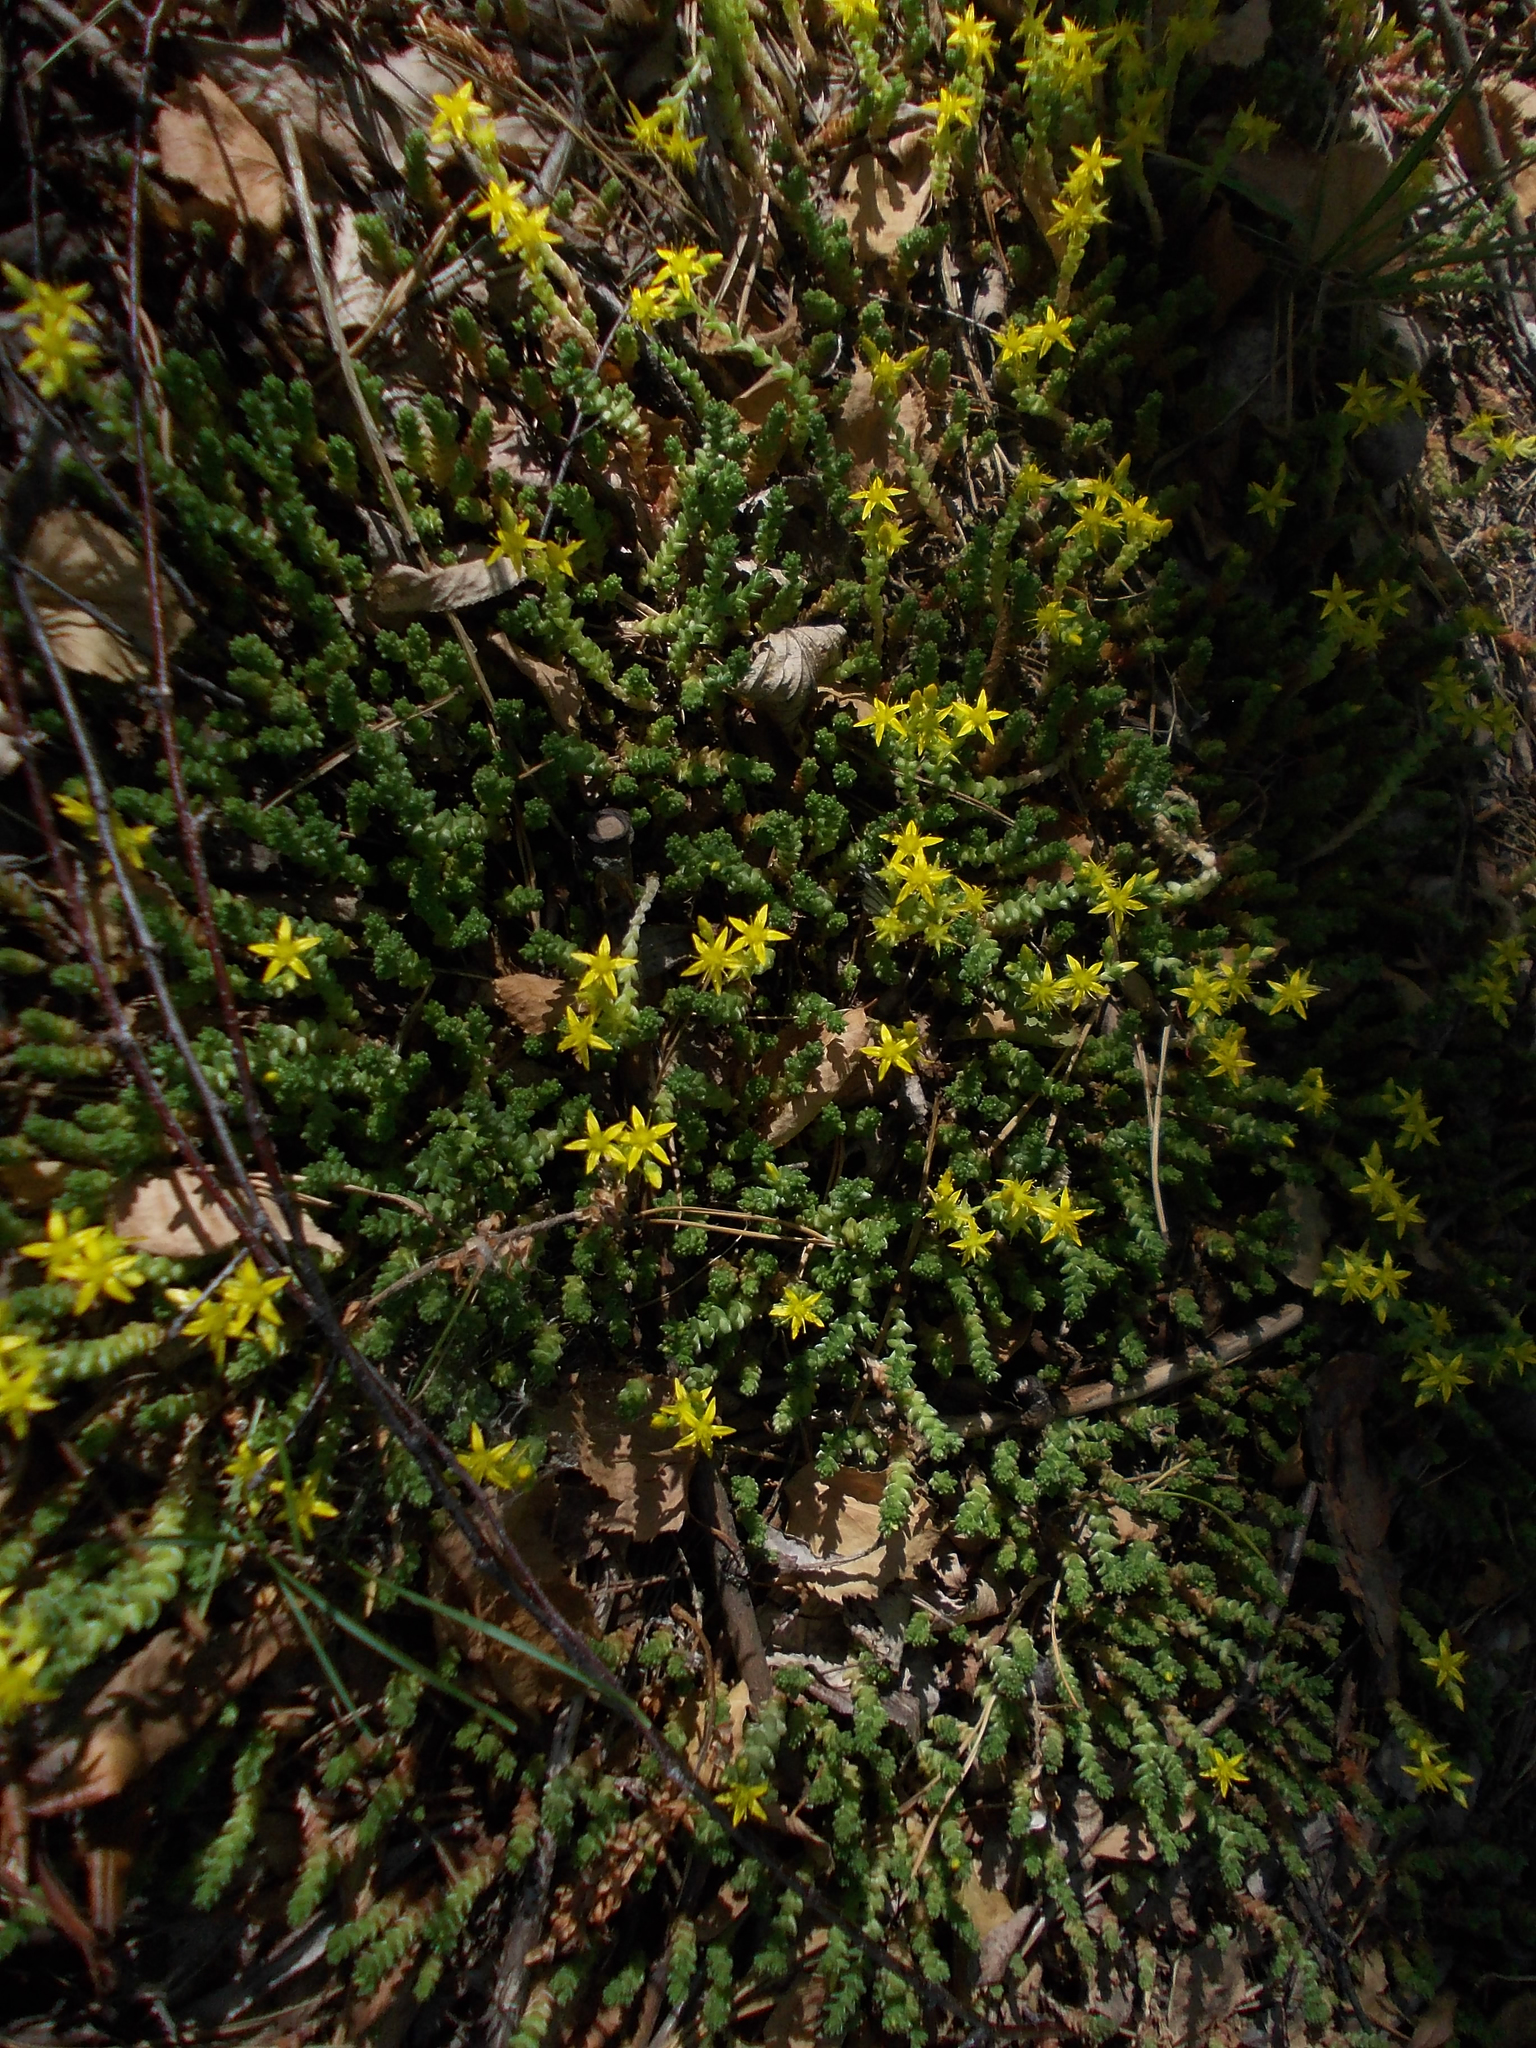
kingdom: Plantae
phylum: Tracheophyta
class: Magnoliopsida
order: Saxifragales
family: Crassulaceae
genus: Sedum
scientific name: Sedum acre
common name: Biting stonecrop
